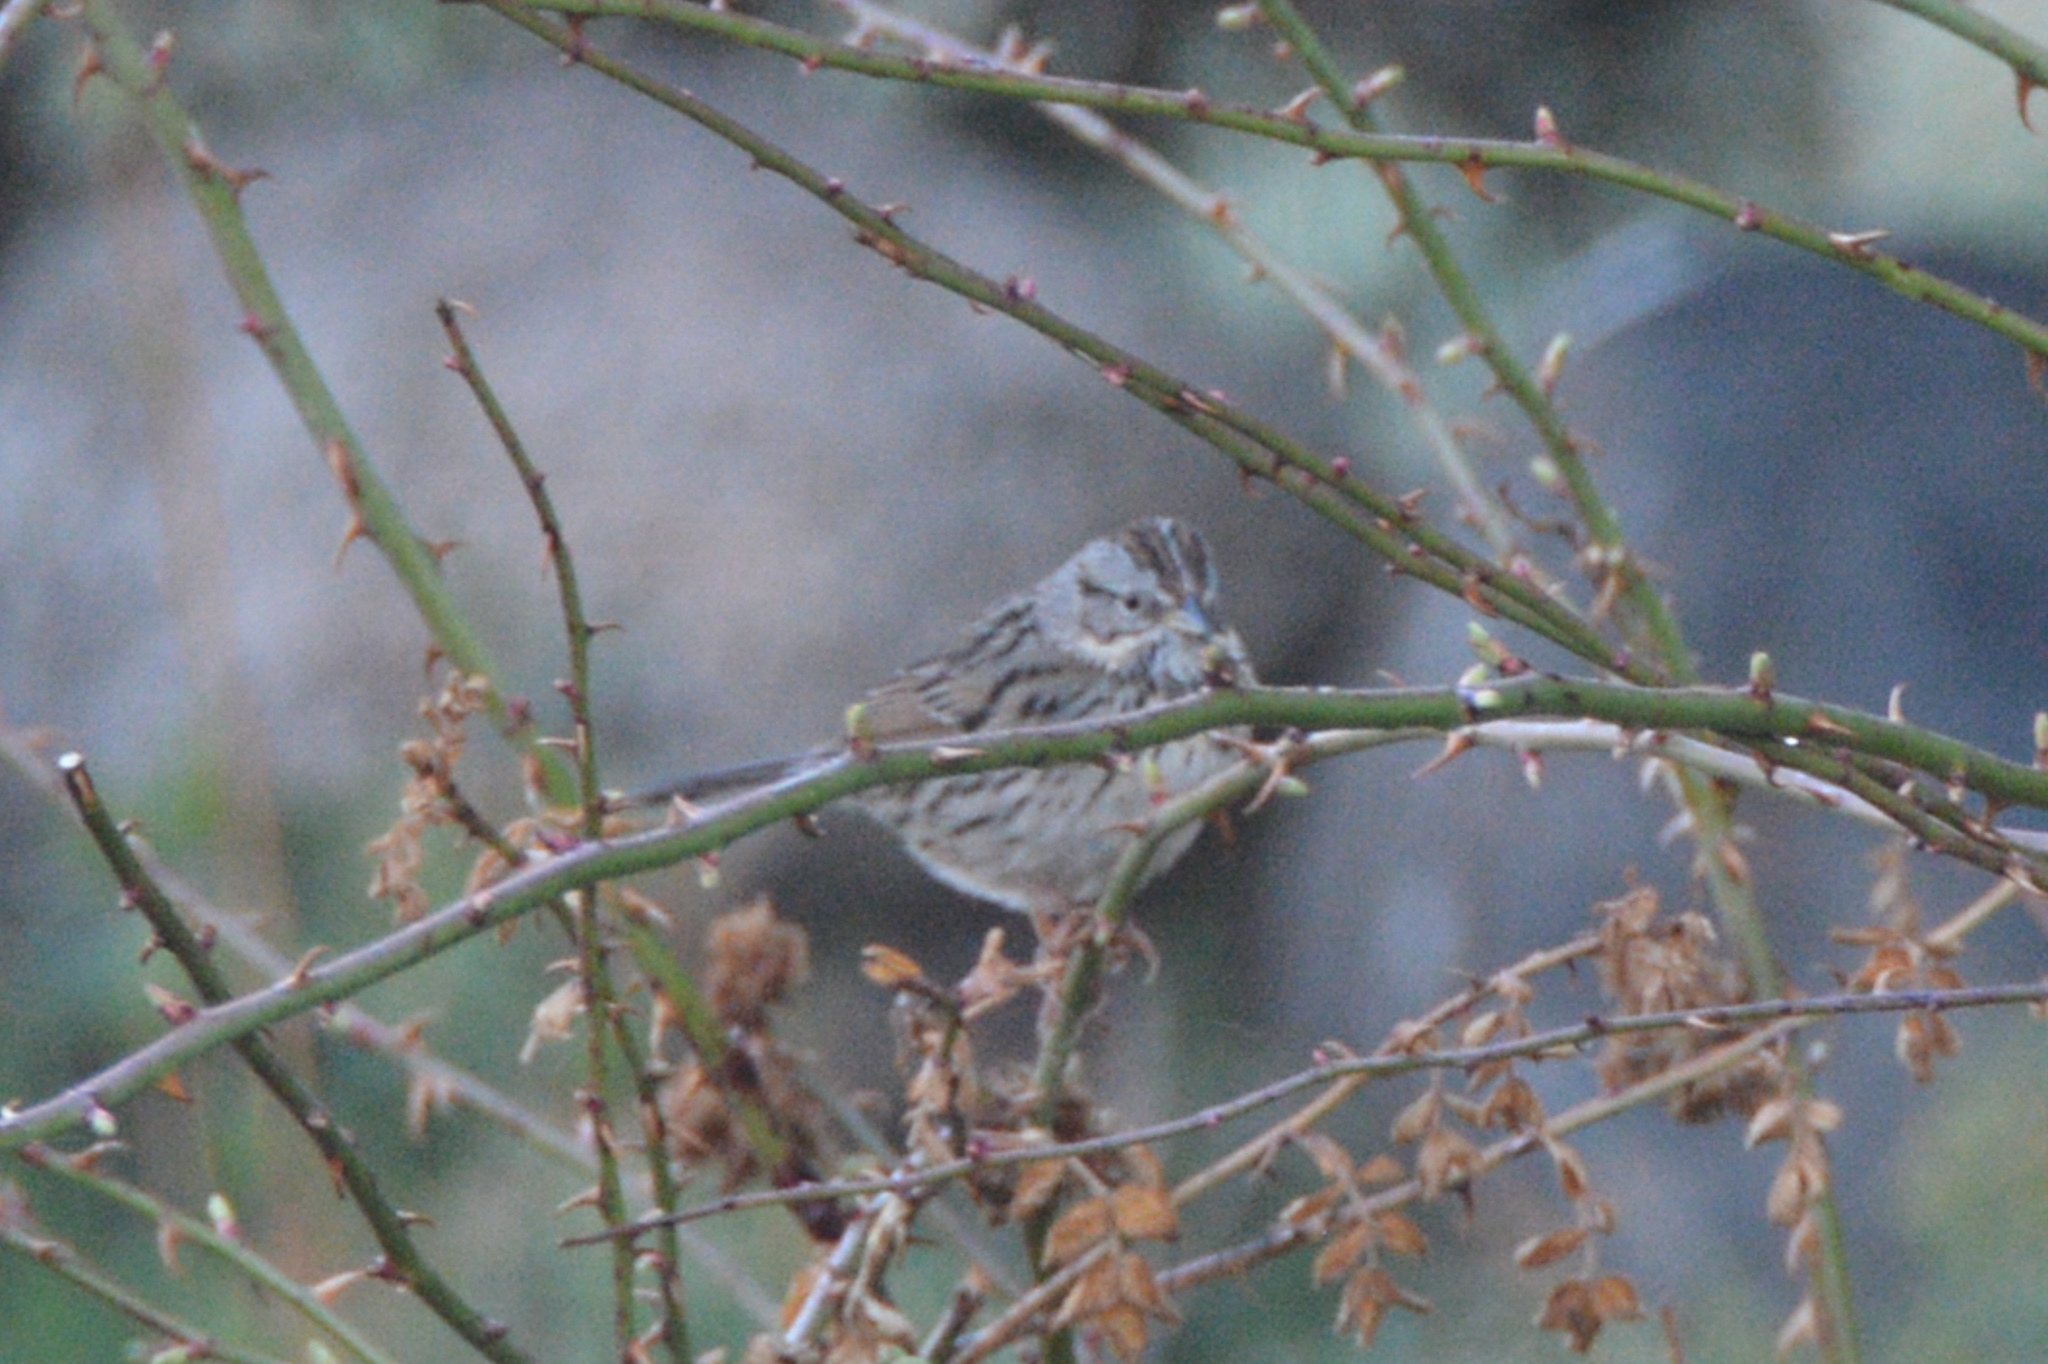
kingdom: Animalia
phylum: Chordata
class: Aves
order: Passeriformes
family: Passerellidae
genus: Melospiza
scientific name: Melospiza lincolnii
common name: Lincoln's sparrow
